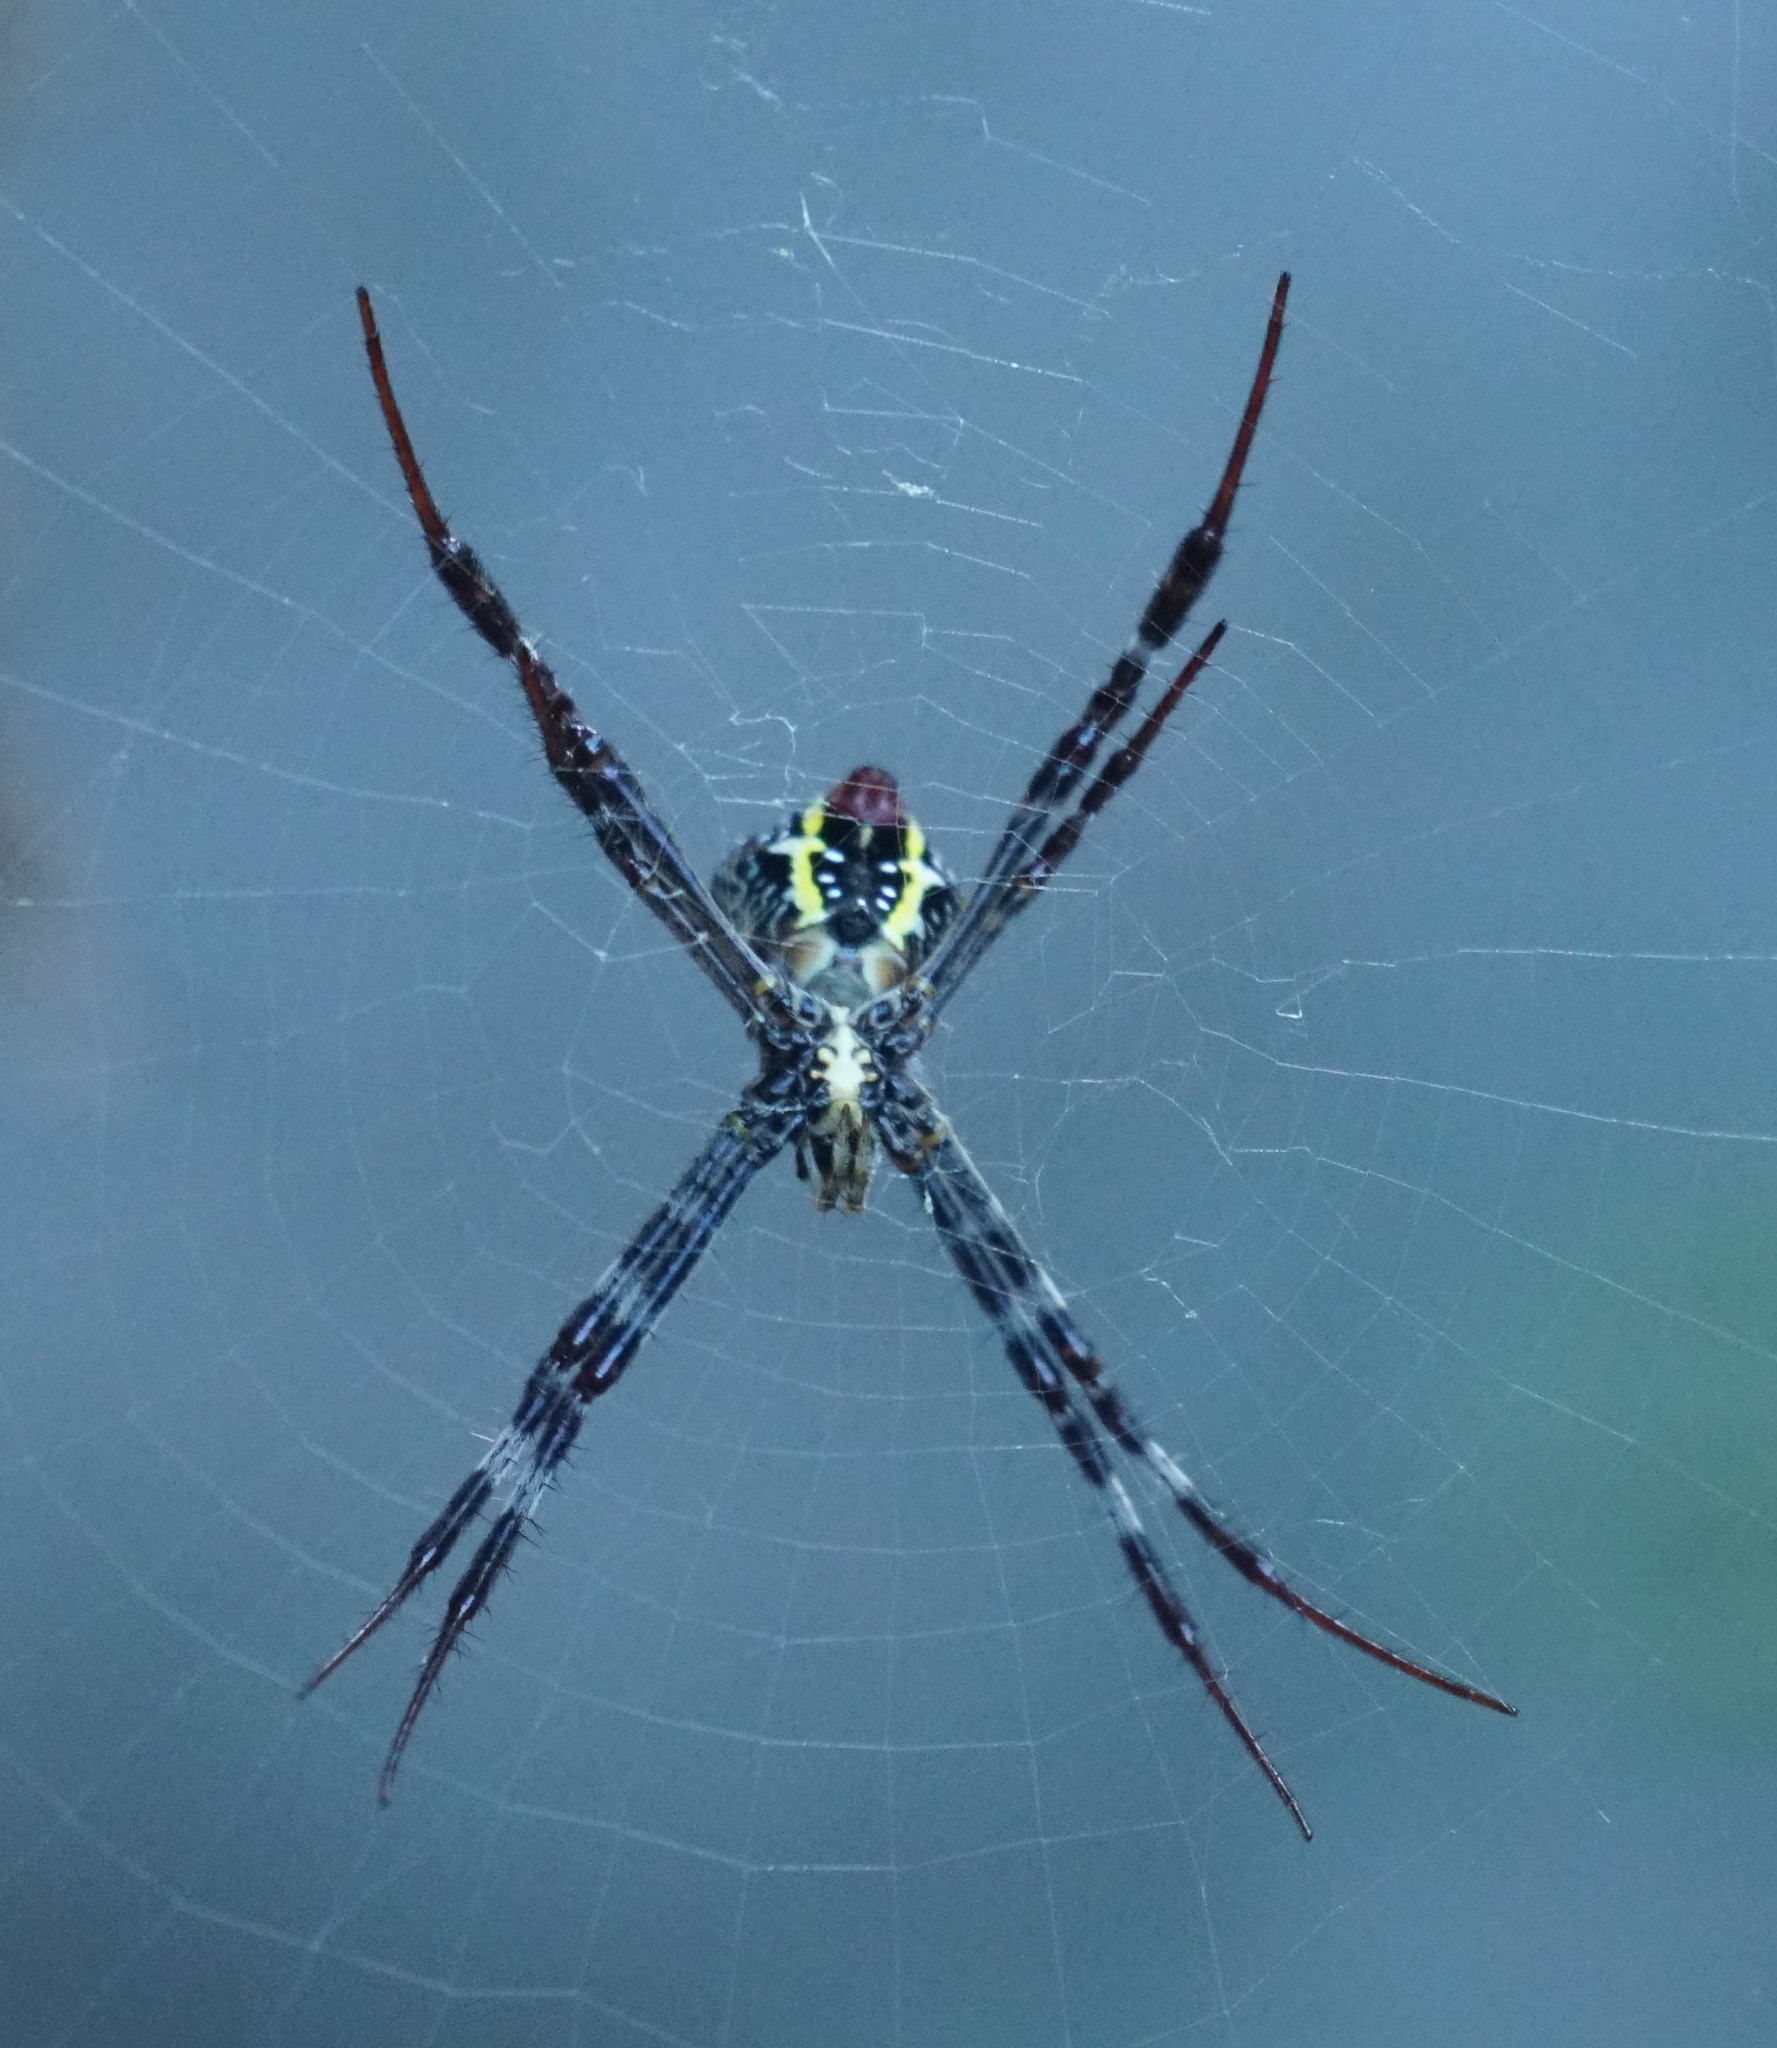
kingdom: Animalia
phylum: Arthropoda
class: Arachnida
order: Araneae
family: Araneidae
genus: Argiope
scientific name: Argiope aetherea
